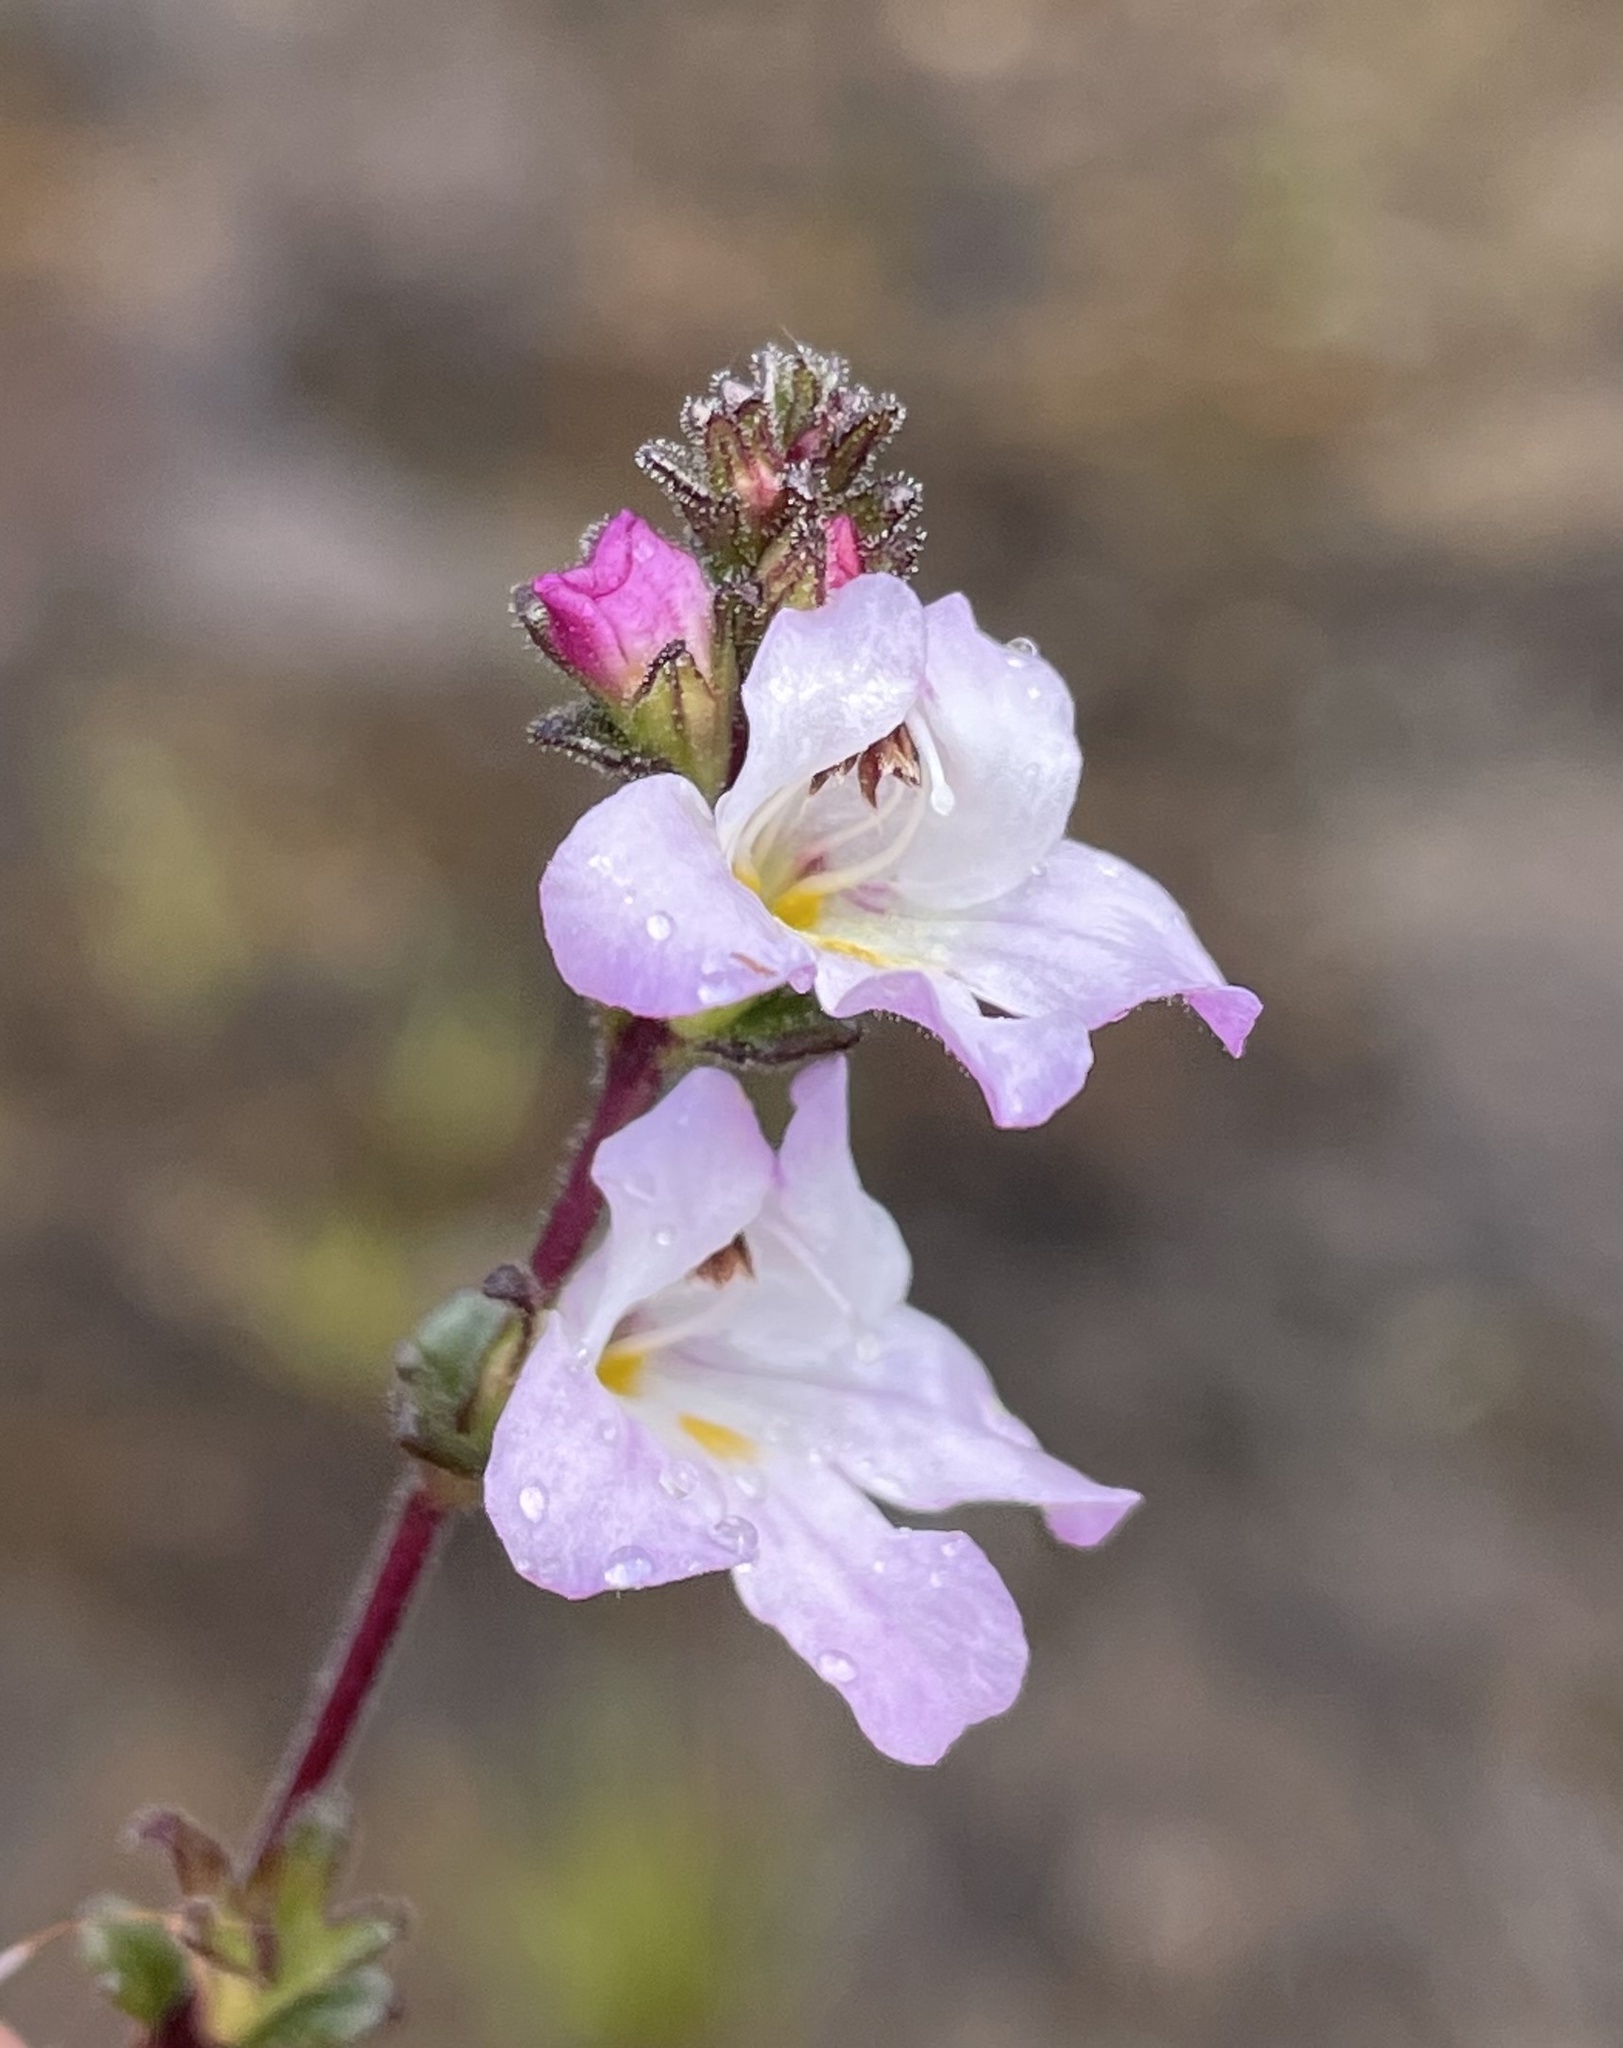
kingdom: Plantae
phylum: Tracheophyta
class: Magnoliopsida
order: Lamiales
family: Orobanchaceae
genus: Euphrasia
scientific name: Euphrasia amplidens
